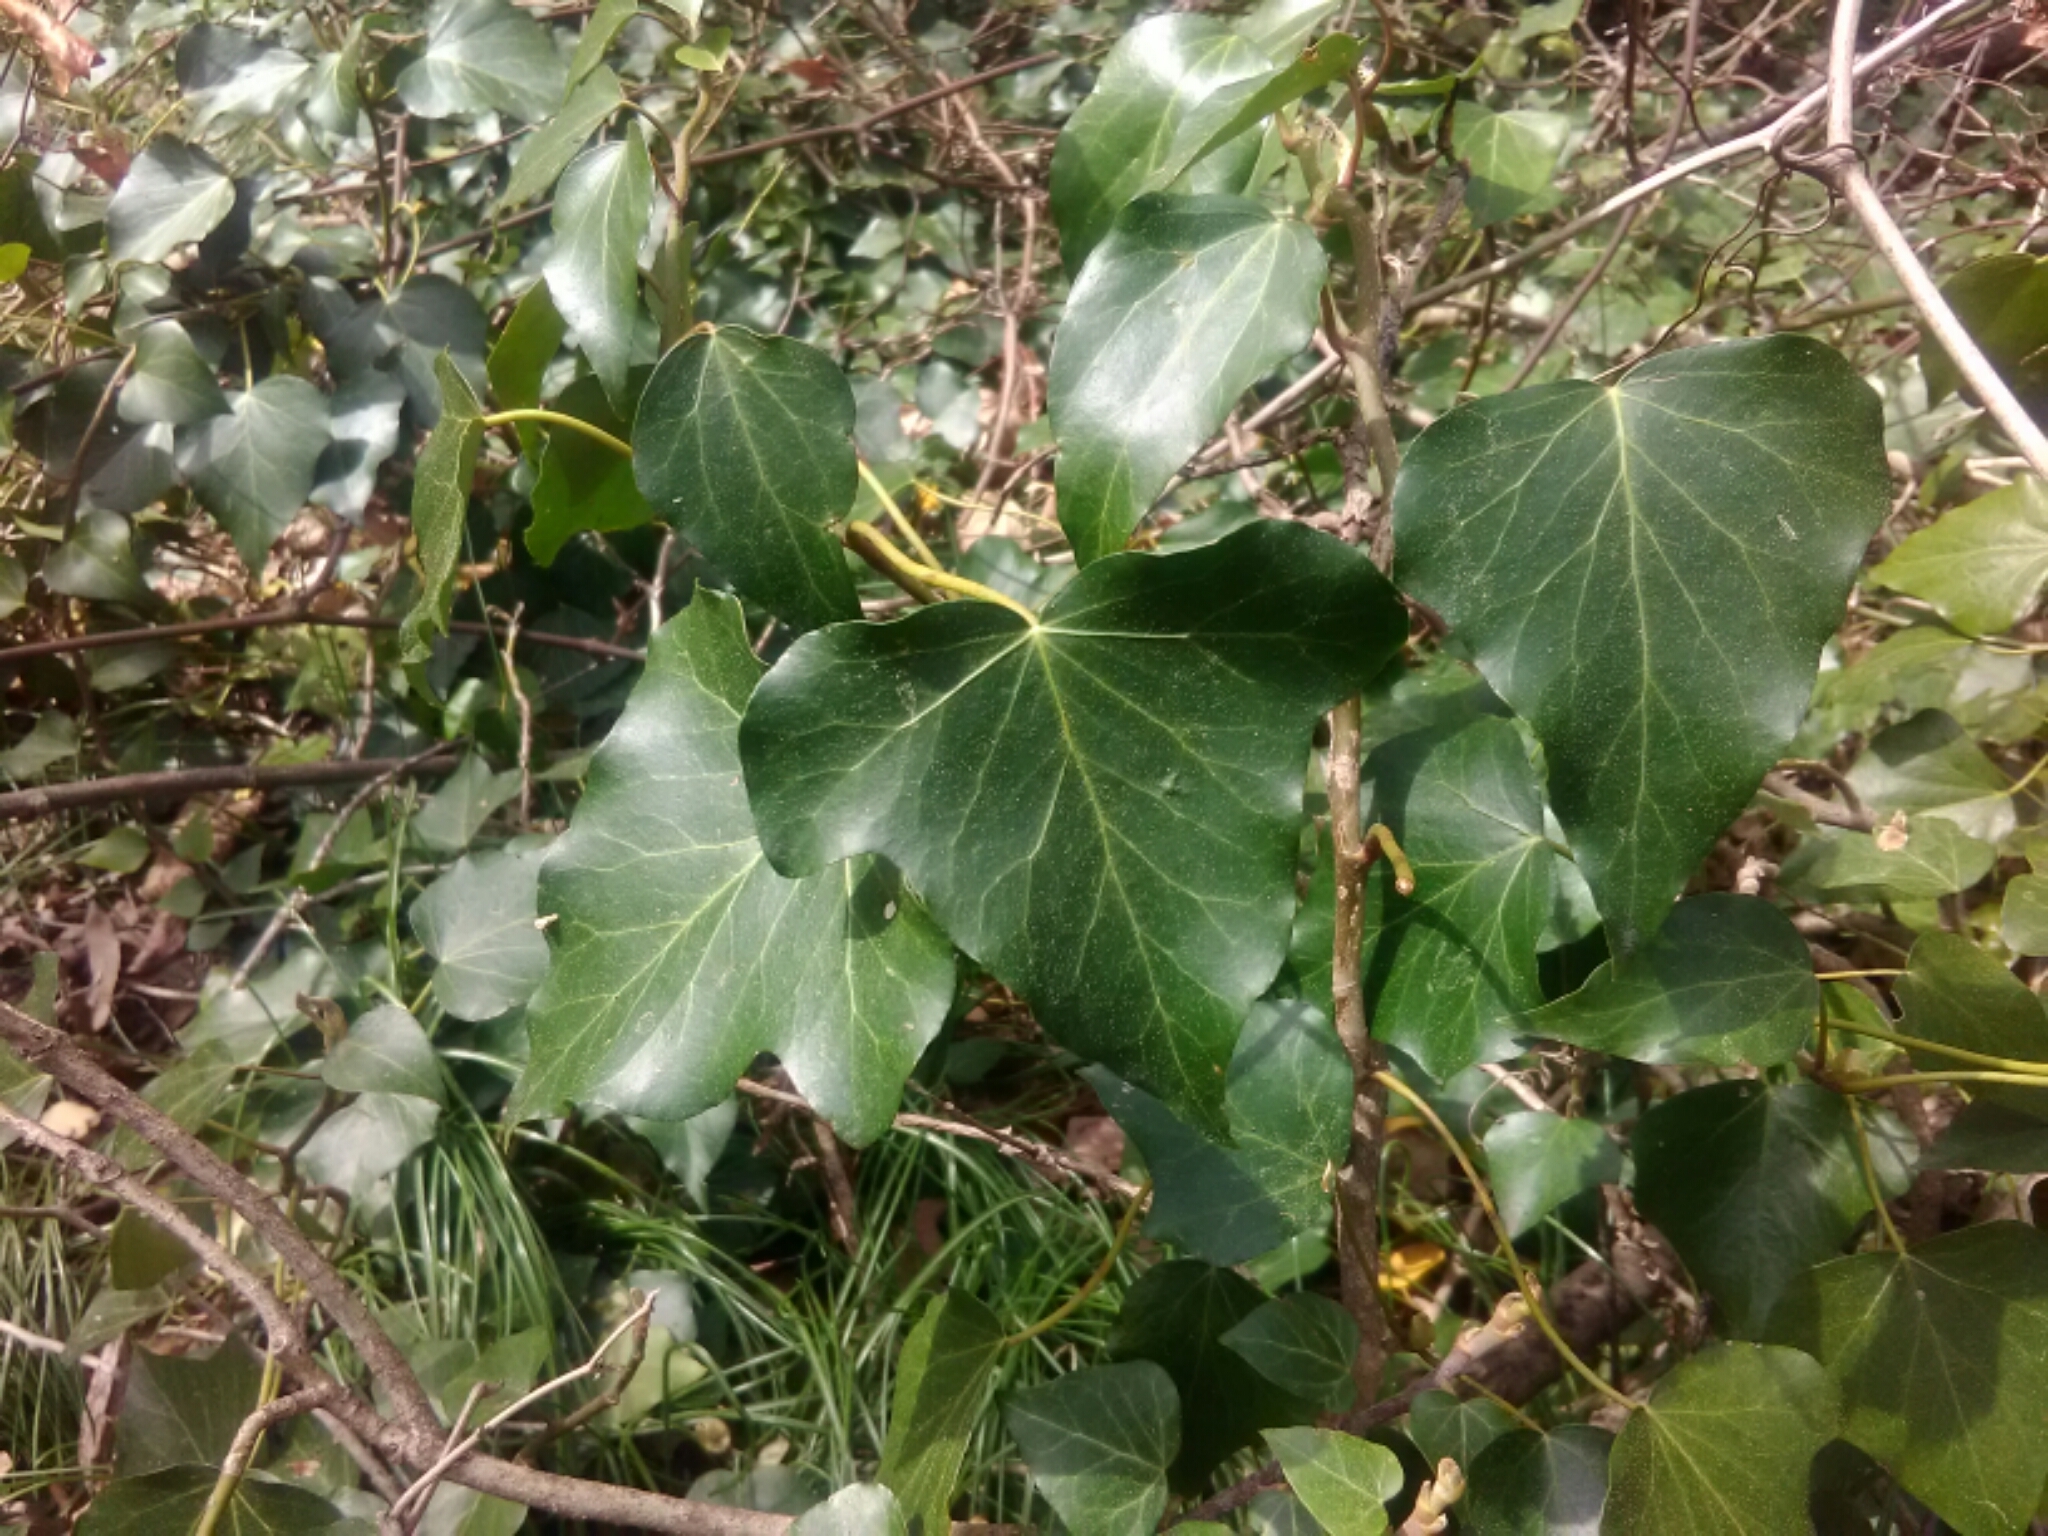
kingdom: Plantae
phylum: Tracheophyta
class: Magnoliopsida
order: Apiales
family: Araliaceae
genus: Hedera
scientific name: Hedera helix
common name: Ivy
